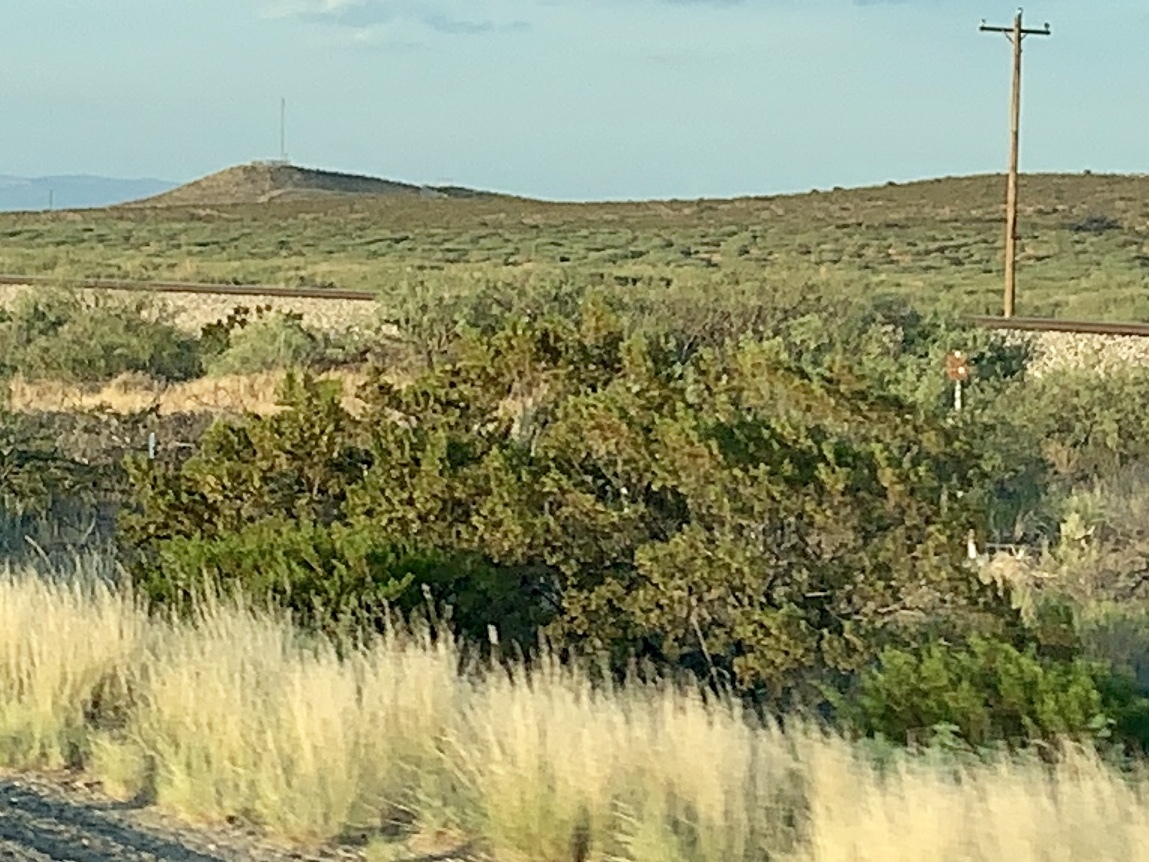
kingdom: Plantae
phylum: Tracheophyta
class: Magnoliopsida
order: Zygophyllales
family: Zygophyllaceae
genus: Larrea
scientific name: Larrea tridentata
